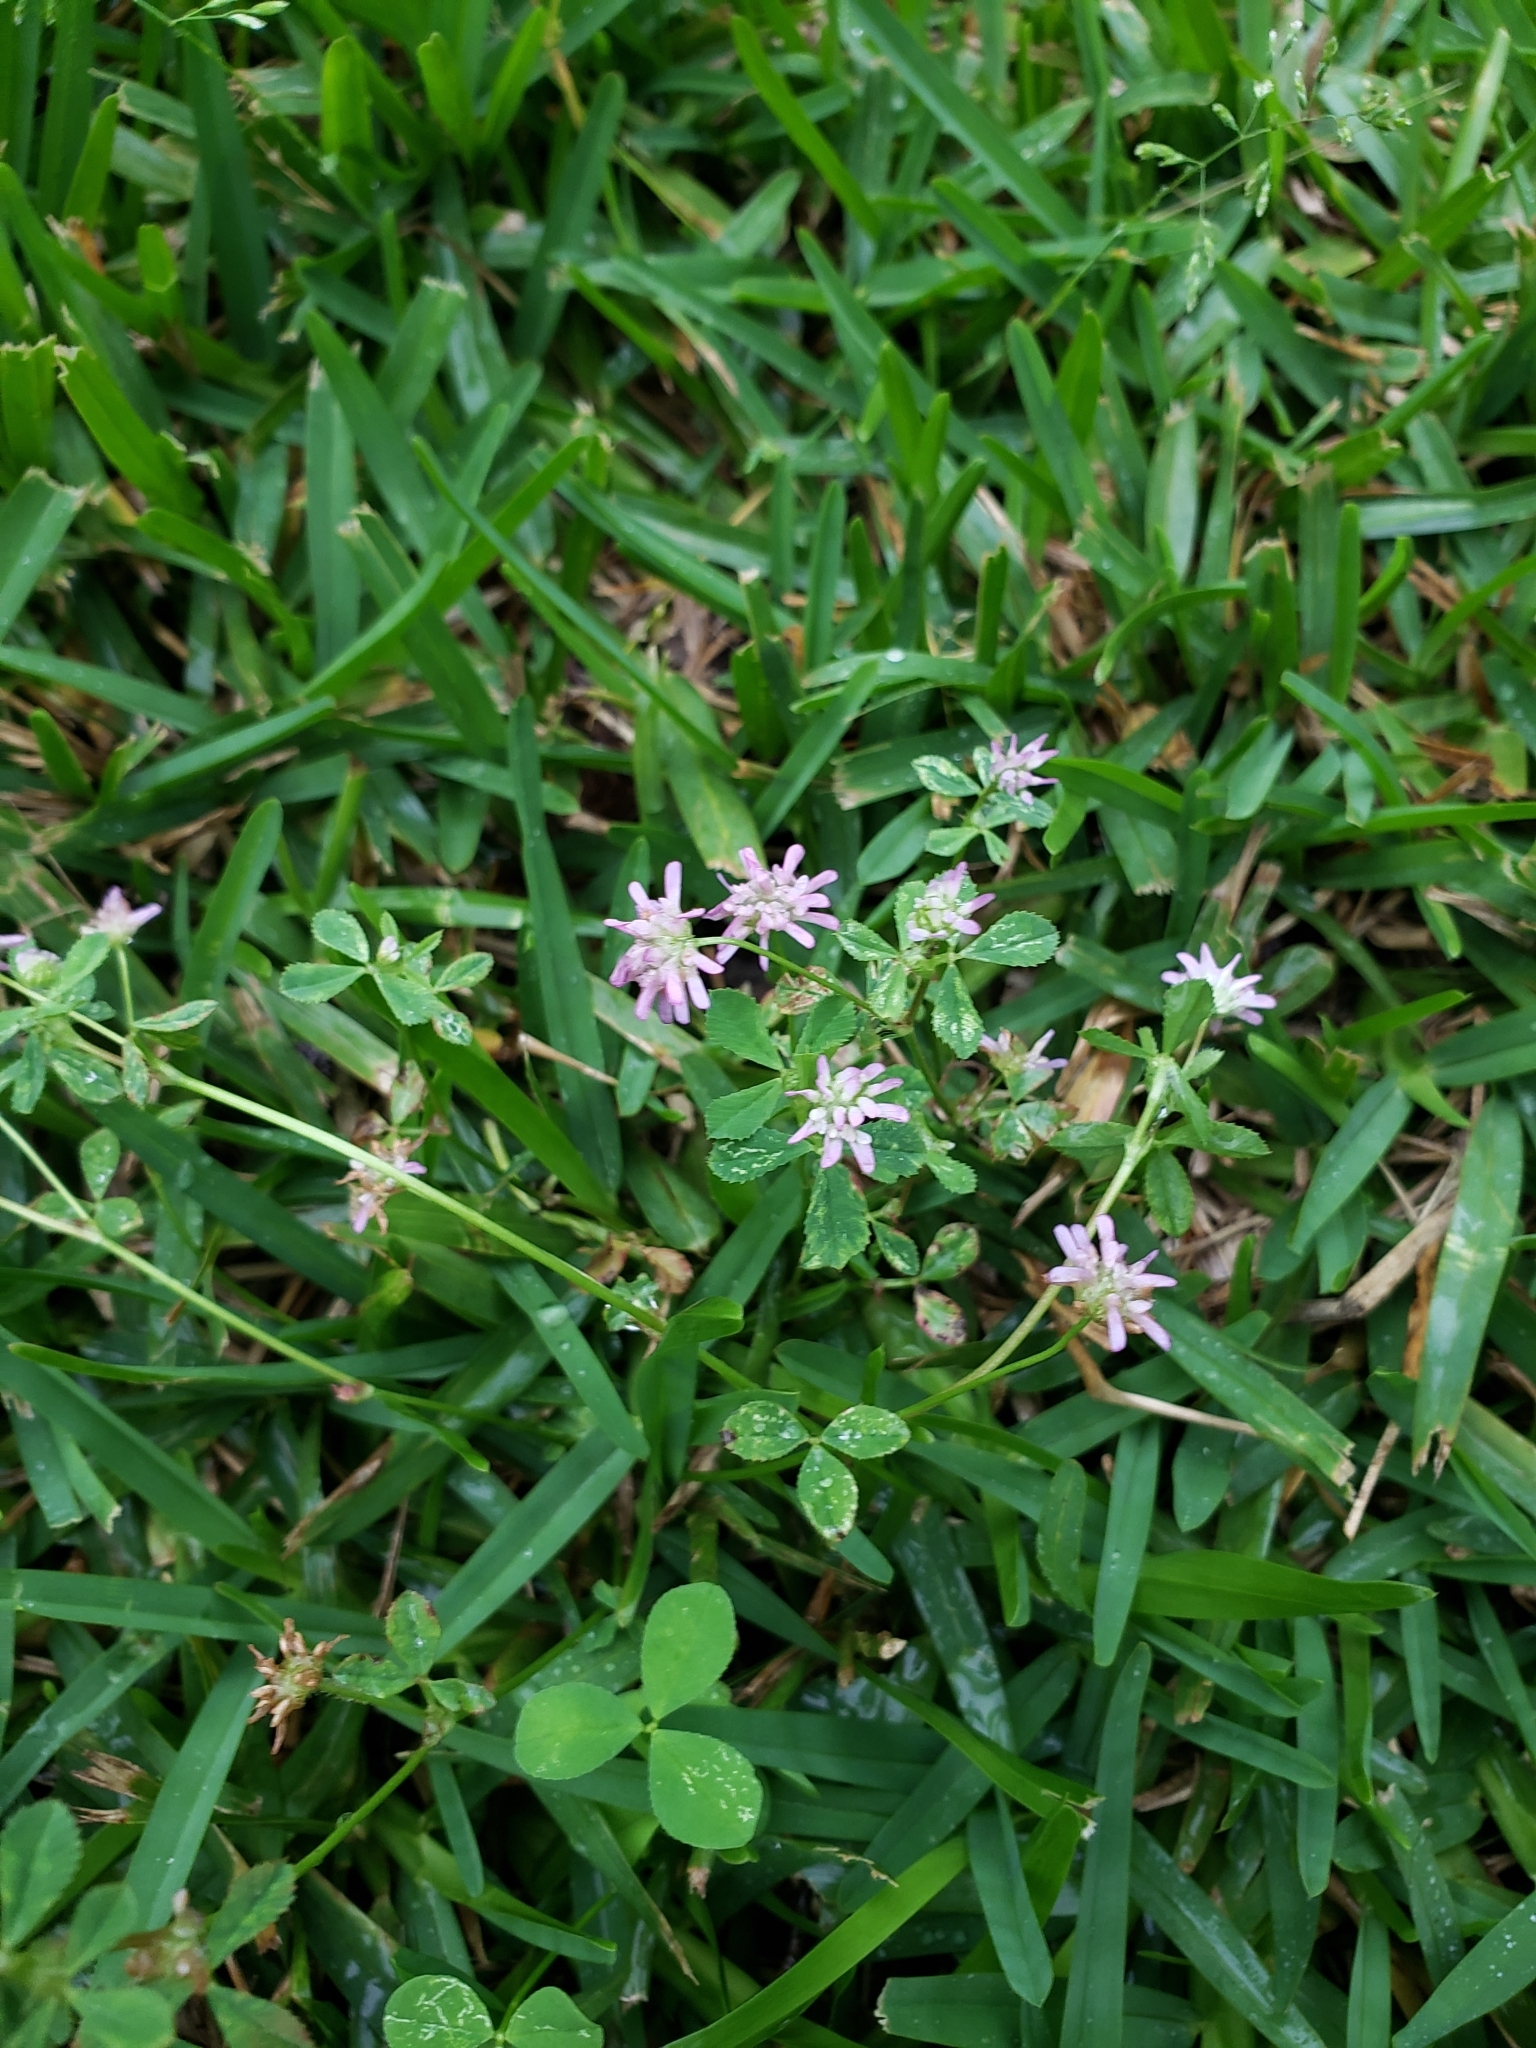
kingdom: Plantae
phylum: Tracheophyta
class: Magnoliopsida
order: Fabales
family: Fabaceae
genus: Trifolium
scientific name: Trifolium resupinatum
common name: Reversed clover
